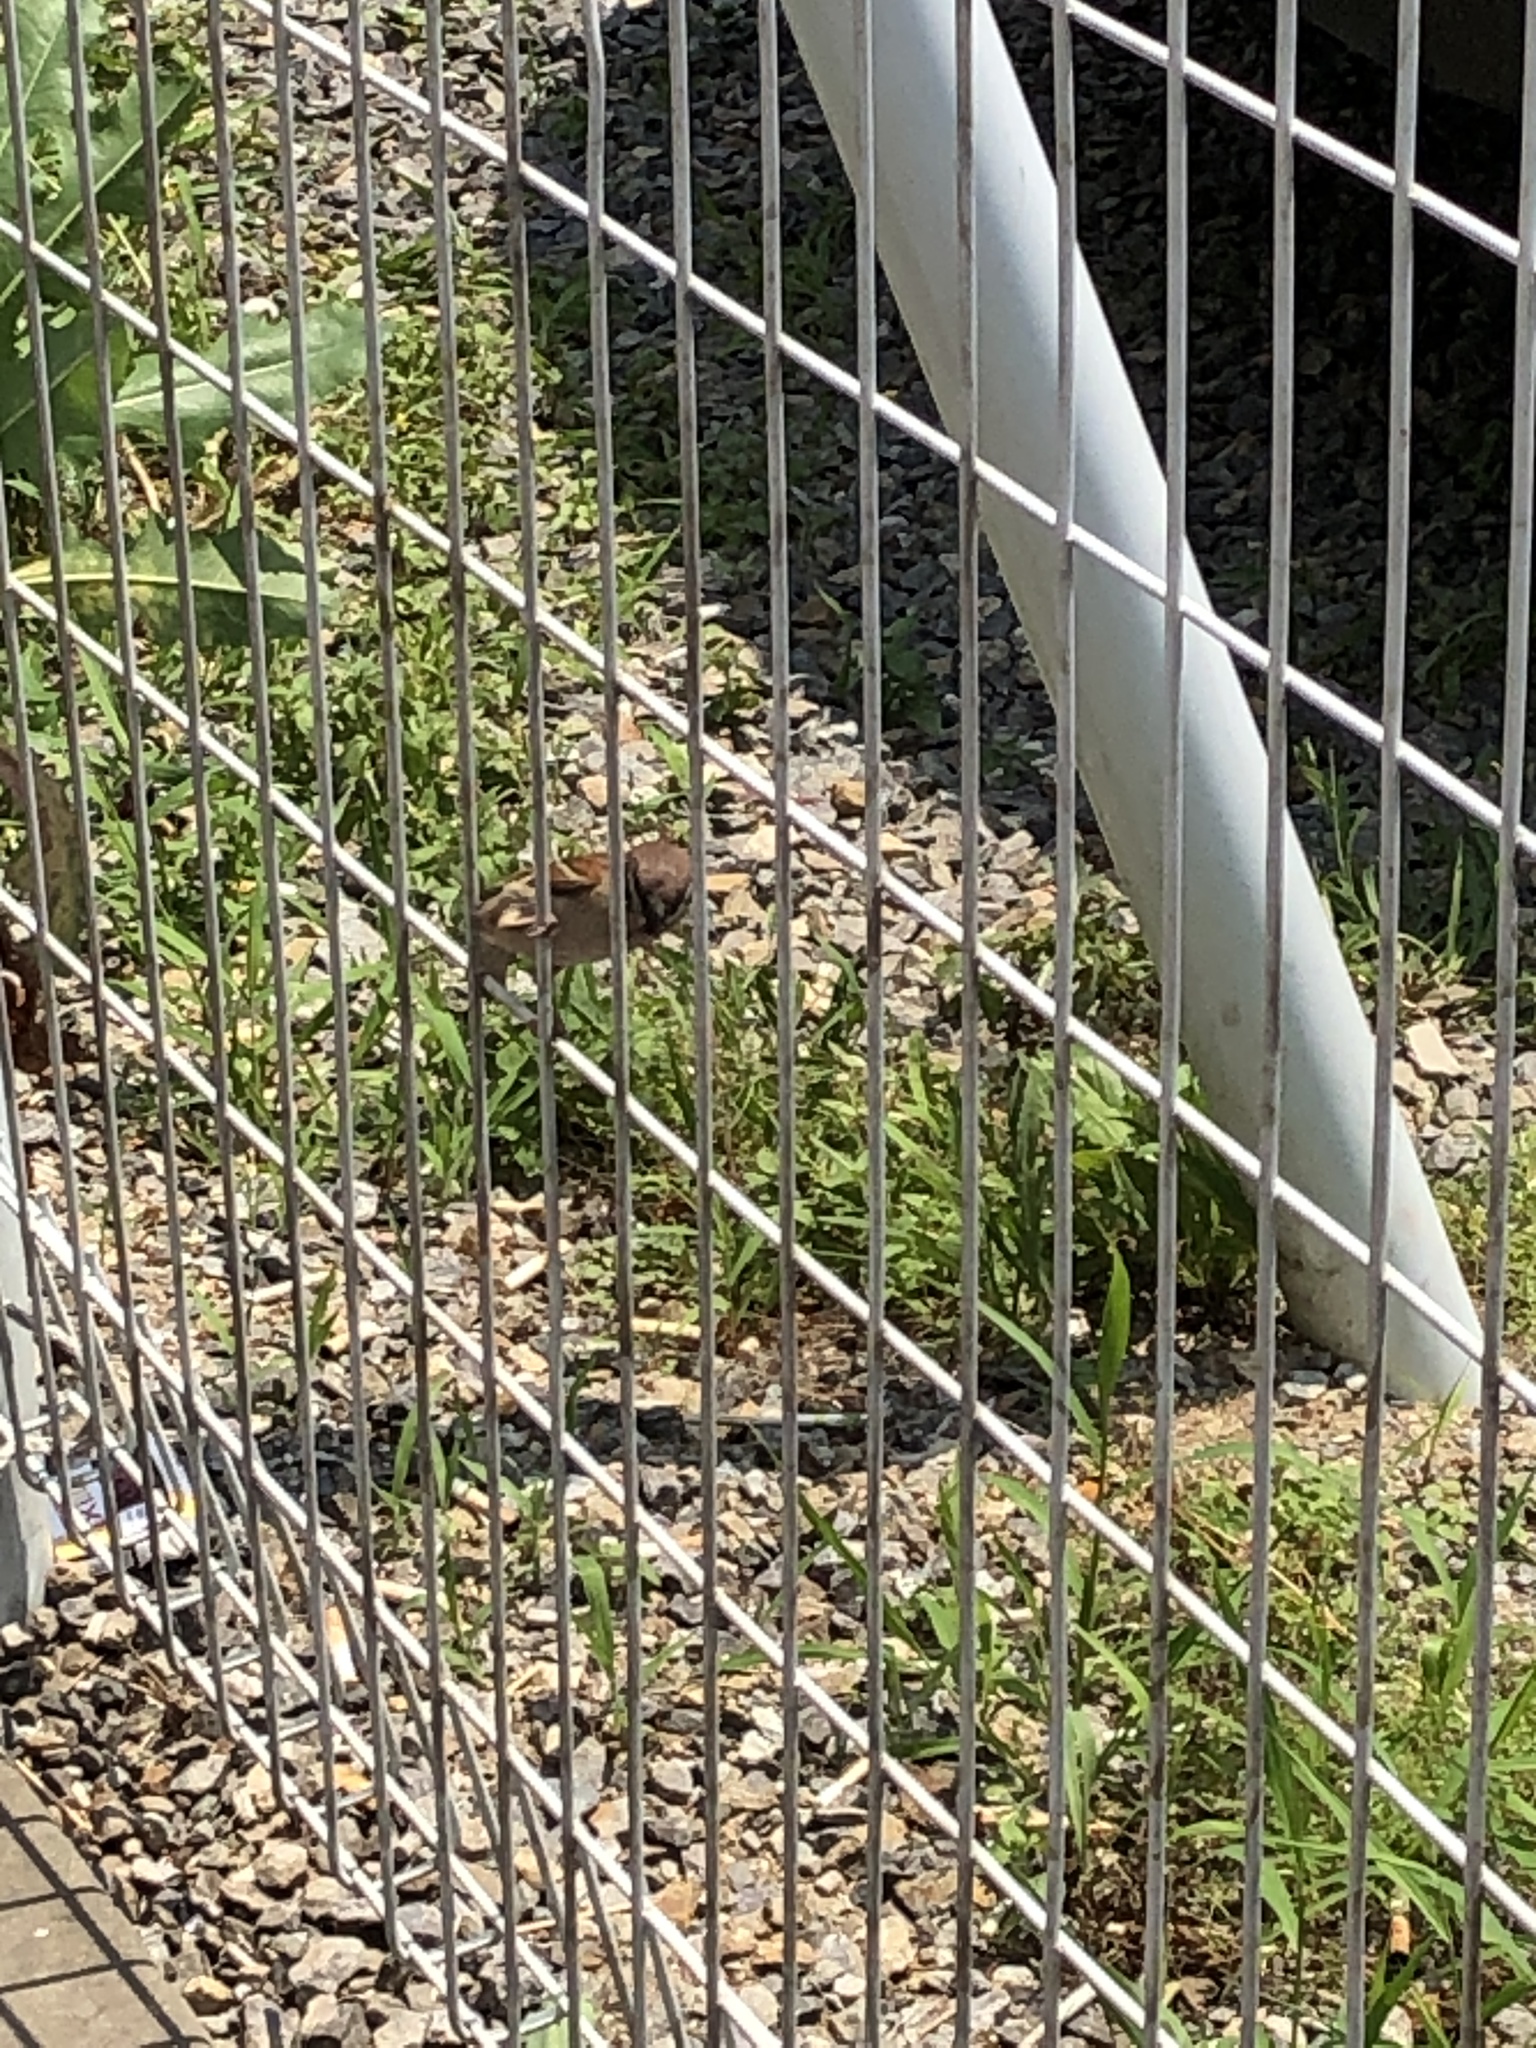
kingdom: Animalia
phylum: Chordata
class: Aves
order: Passeriformes
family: Passeridae
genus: Passer
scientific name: Passer montanus
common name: Eurasian tree sparrow
